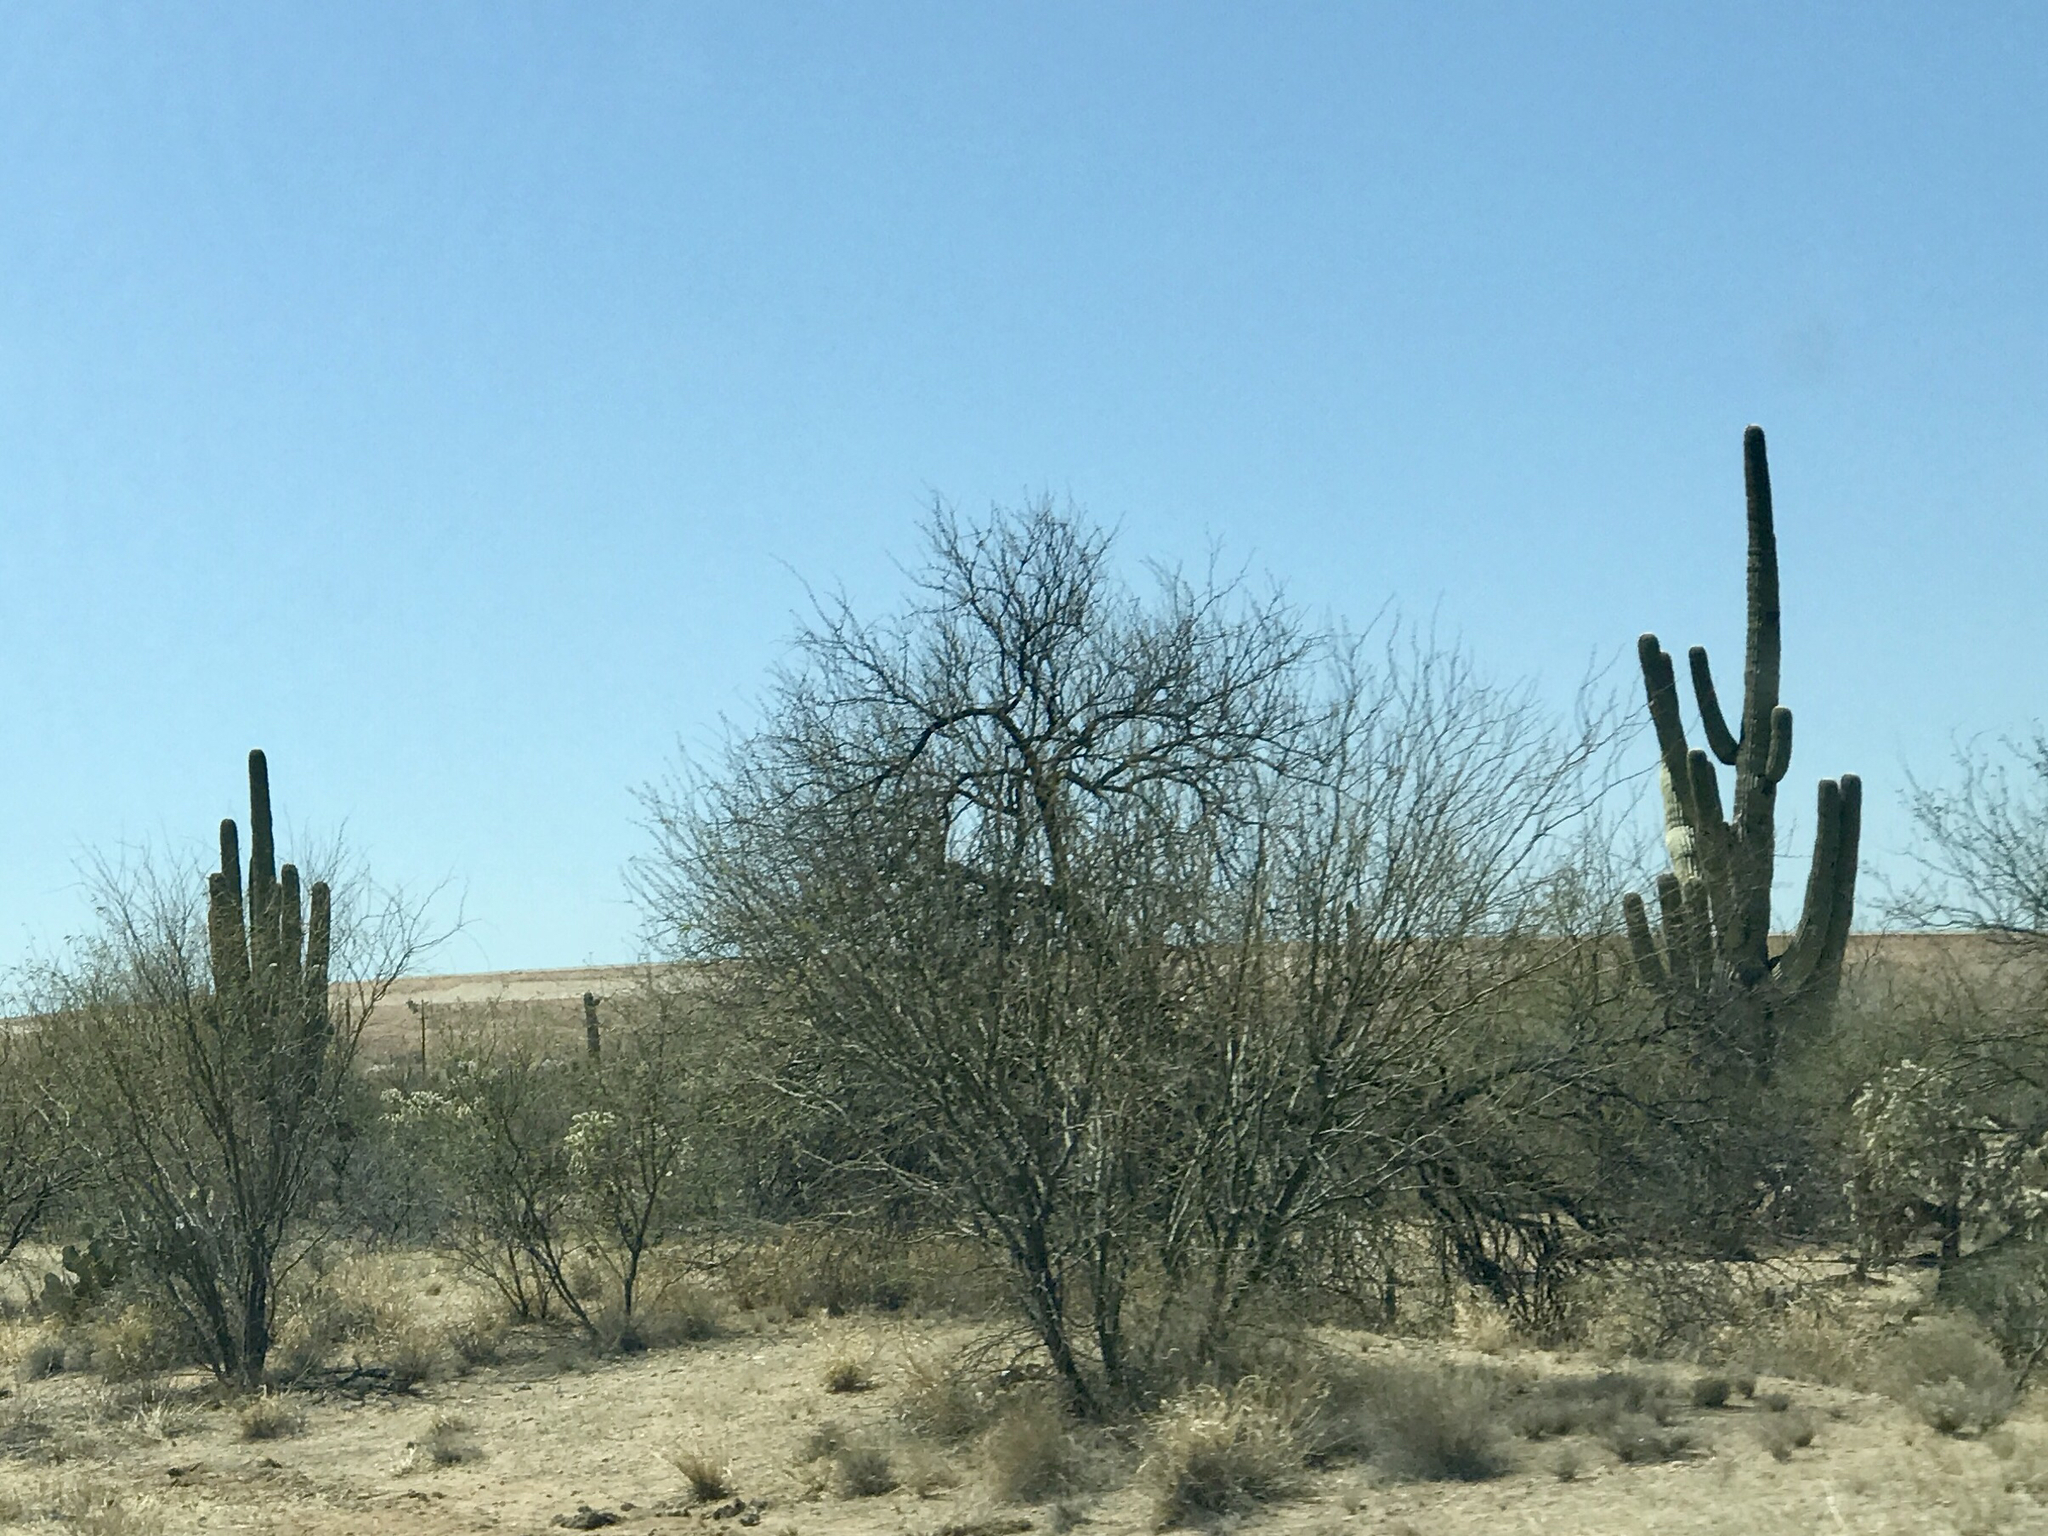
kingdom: Plantae
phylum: Tracheophyta
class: Magnoliopsida
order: Caryophyllales
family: Cactaceae
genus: Carnegiea
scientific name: Carnegiea gigantea
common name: Saguaro
